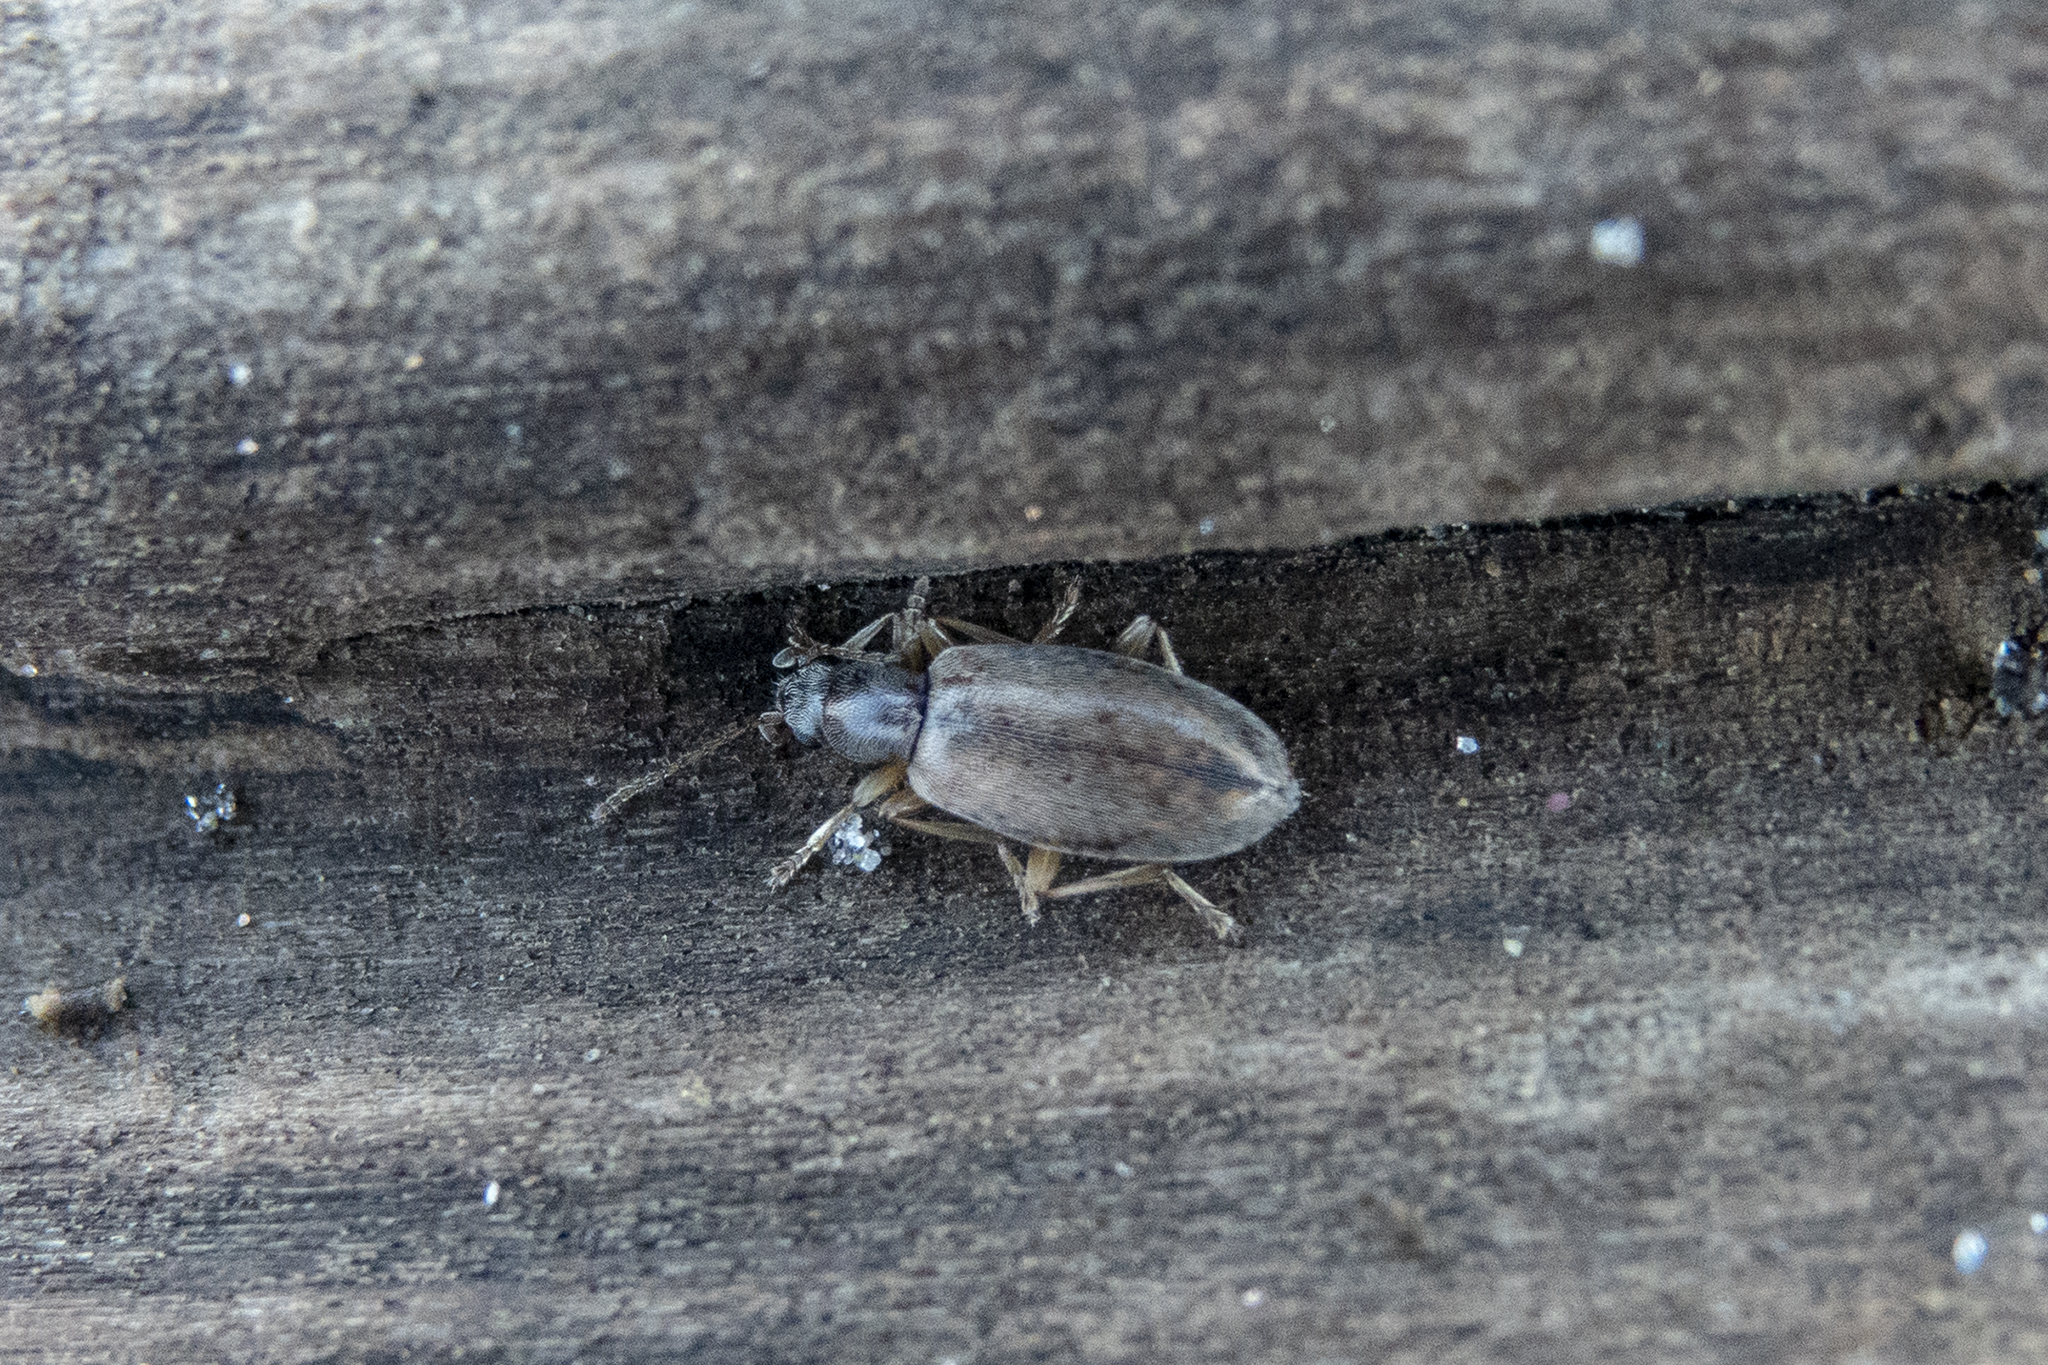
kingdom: Animalia
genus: Lagrioda
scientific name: Lagrioda brounii
